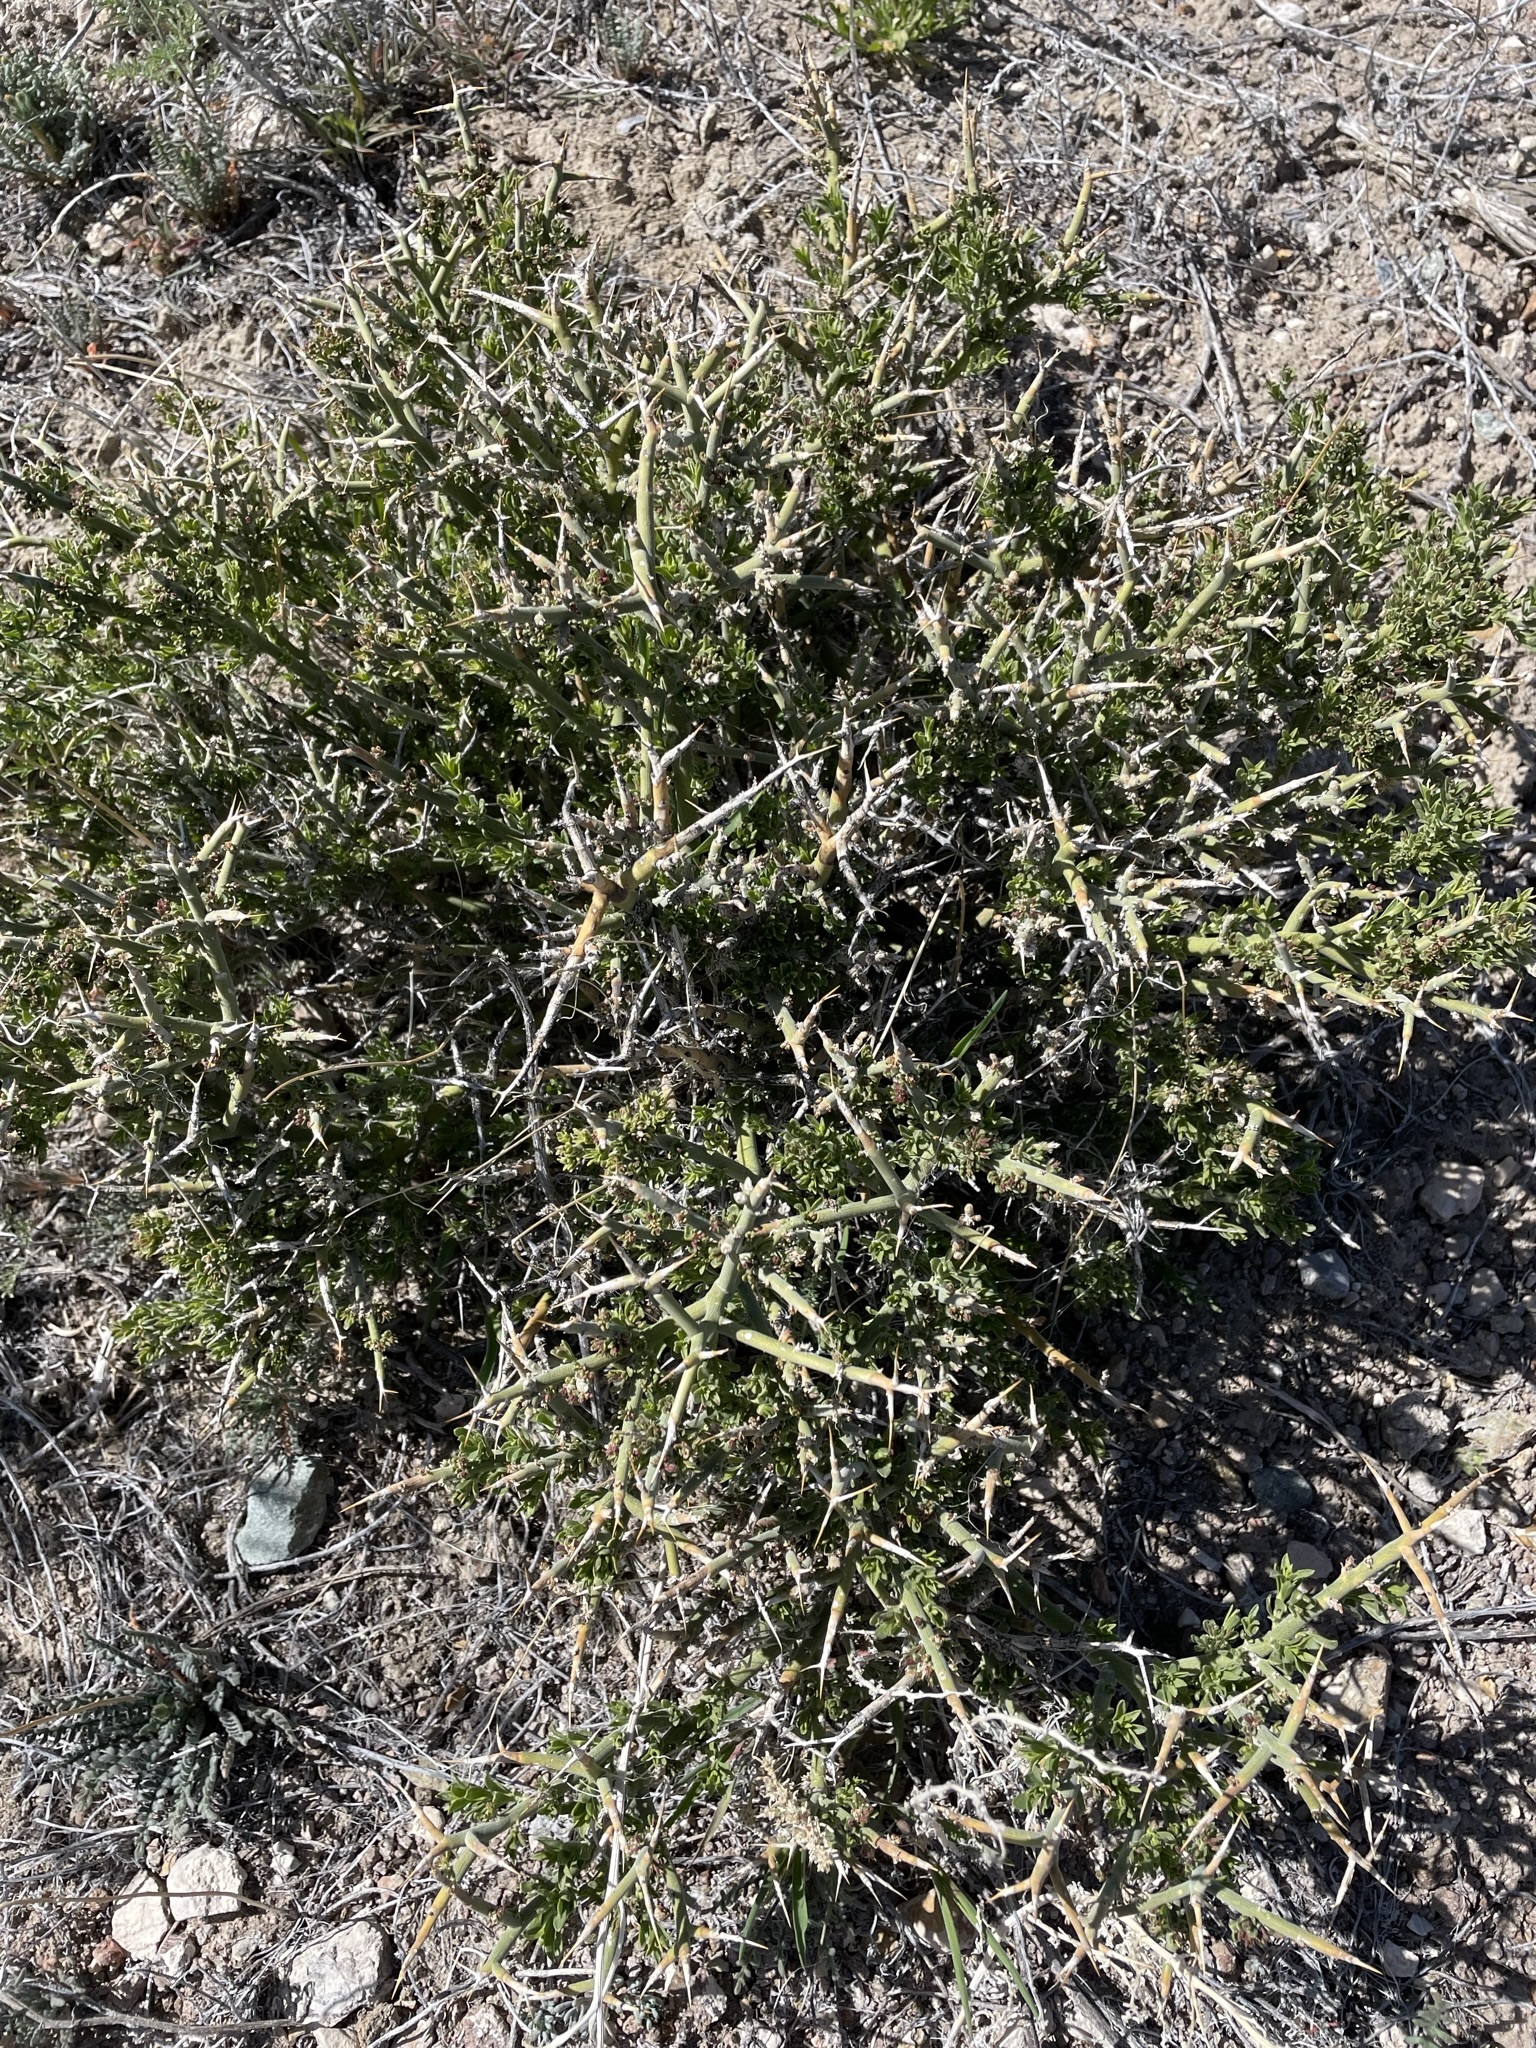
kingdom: Plantae
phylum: Tracheophyta
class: Magnoliopsida
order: Lamiales
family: Oleaceae
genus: Menodora
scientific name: Menodora spinescens
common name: Spiny menodora
